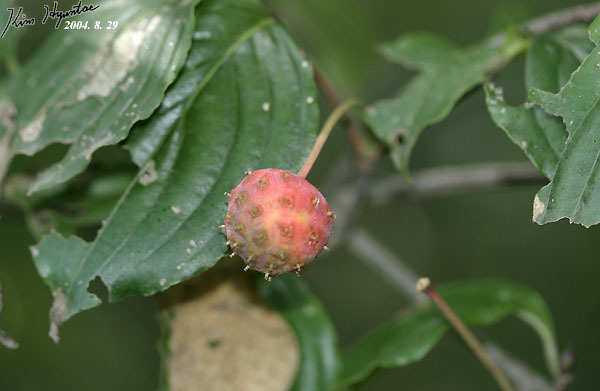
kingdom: Plantae
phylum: Tracheophyta
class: Magnoliopsida
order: Cornales
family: Cornaceae
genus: Cornus
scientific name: Cornus kousa
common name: Japanese dogwood
